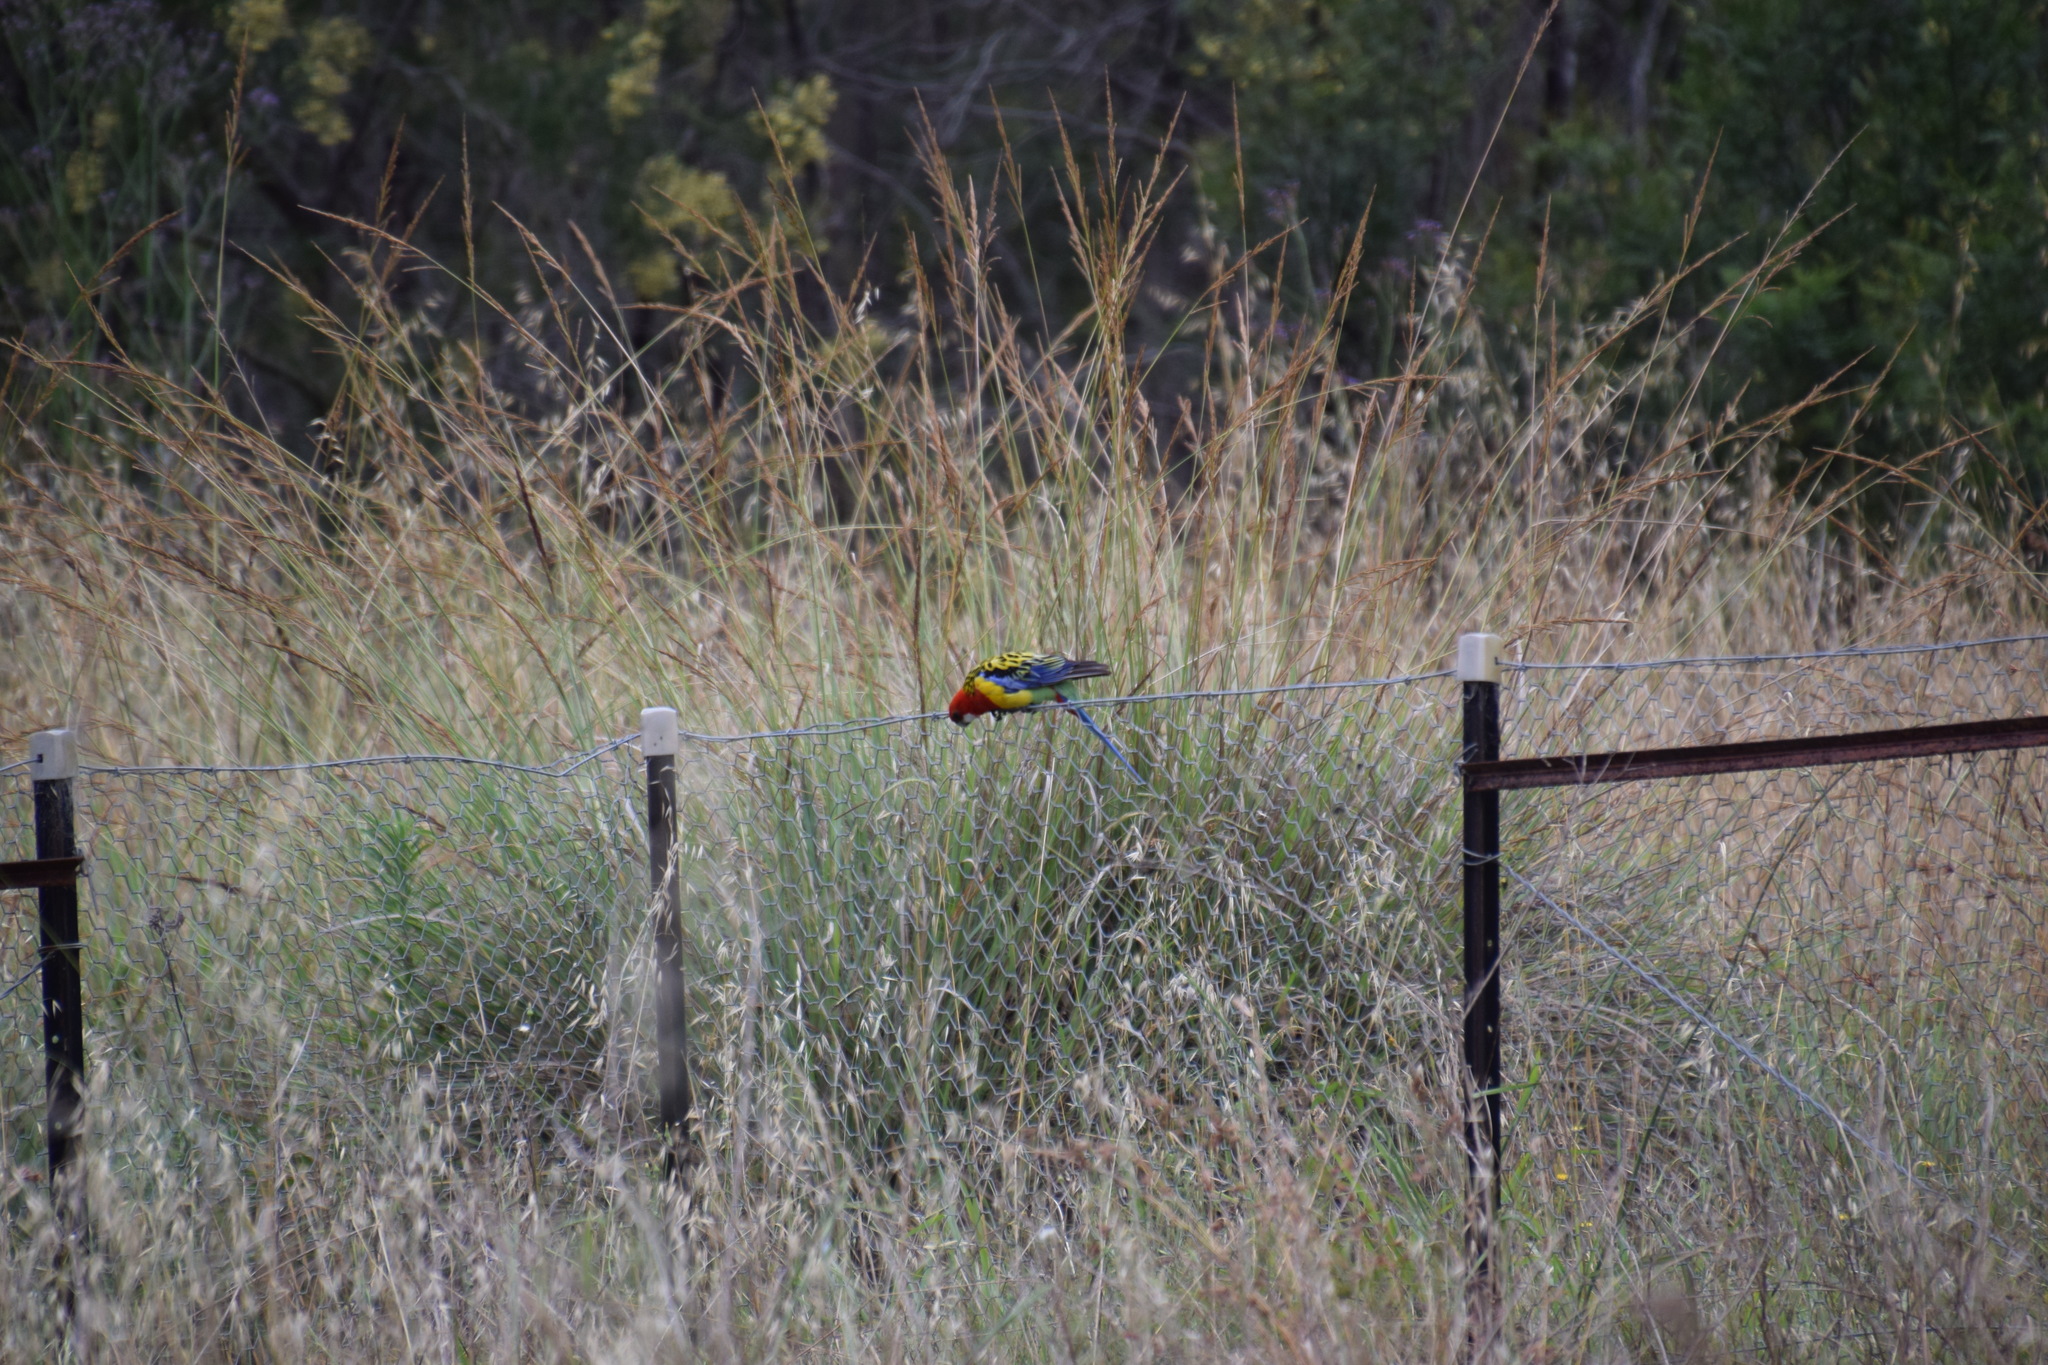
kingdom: Animalia
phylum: Chordata
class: Aves
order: Psittaciformes
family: Psittacidae
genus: Platycercus
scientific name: Platycercus eximius
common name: Eastern rosella
